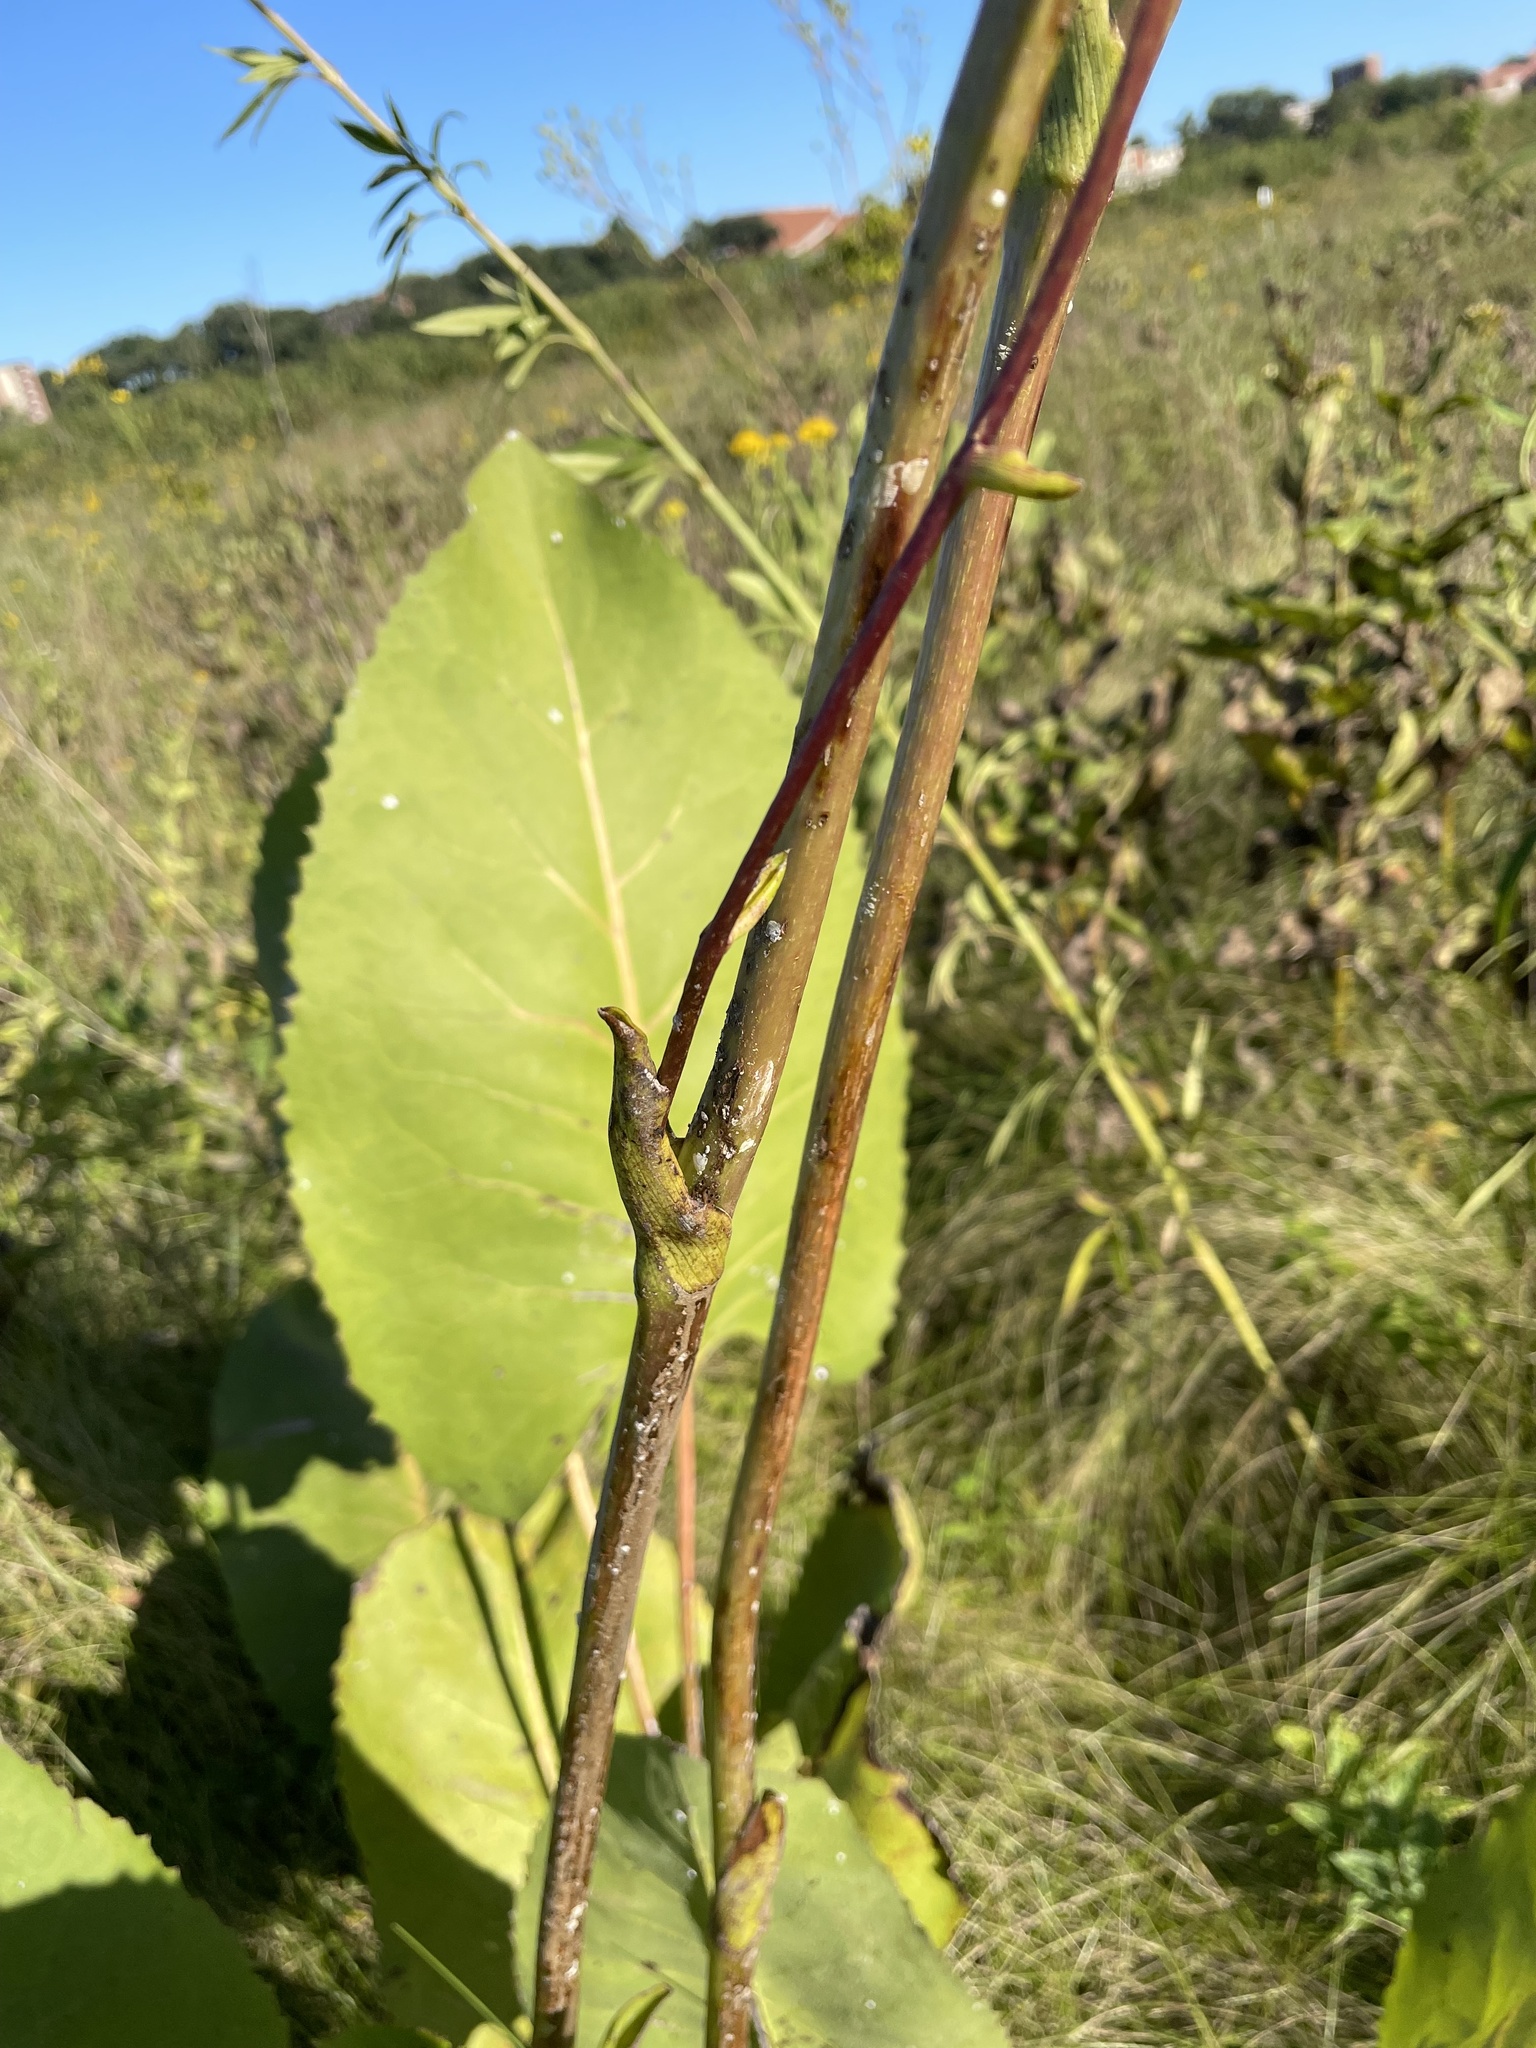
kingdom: Plantae
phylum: Tracheophyta
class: Magnoliopsida
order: Asterales
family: Asteraceae
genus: Silphium
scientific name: Silphium terebinthinaceum
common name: Basal-leaf rosinweed
